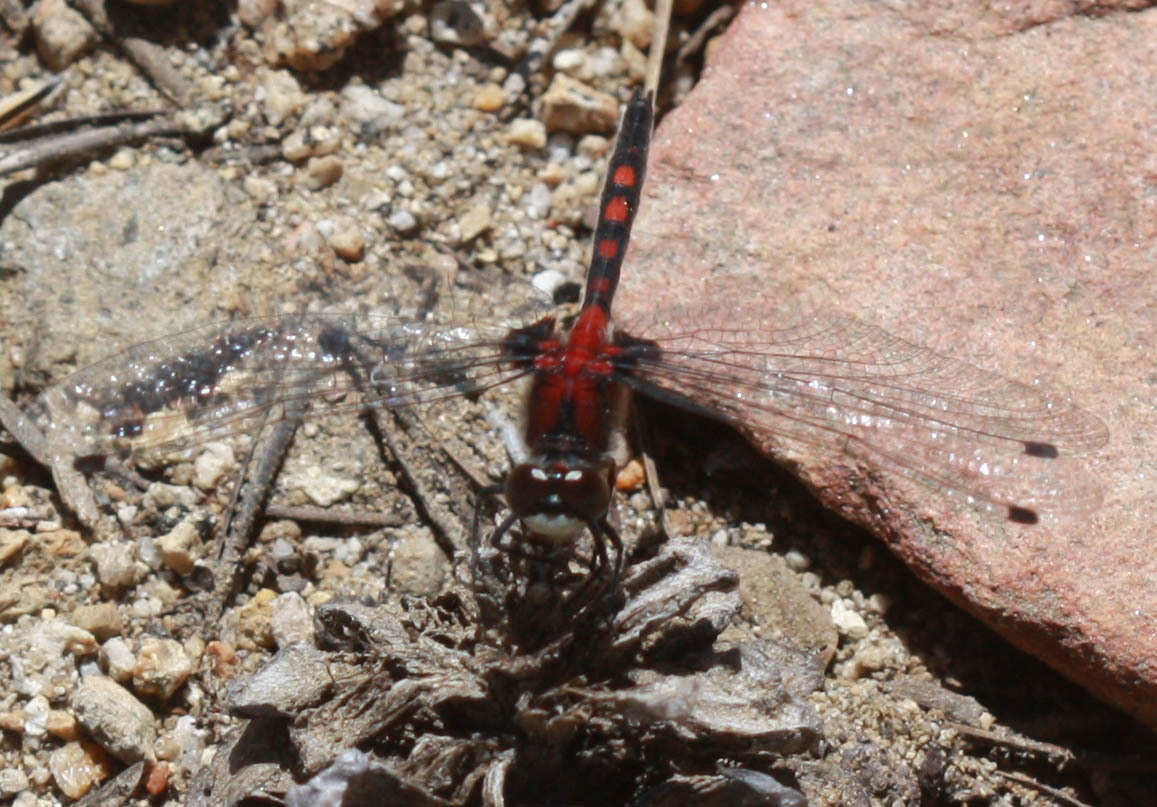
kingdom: Animalia
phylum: Arthropoda
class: Insecta
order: Odonata
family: Libellulidae
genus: Leucorrhinia
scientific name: Leucorrhinia hudsonica
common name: Hudsonian whiteface
